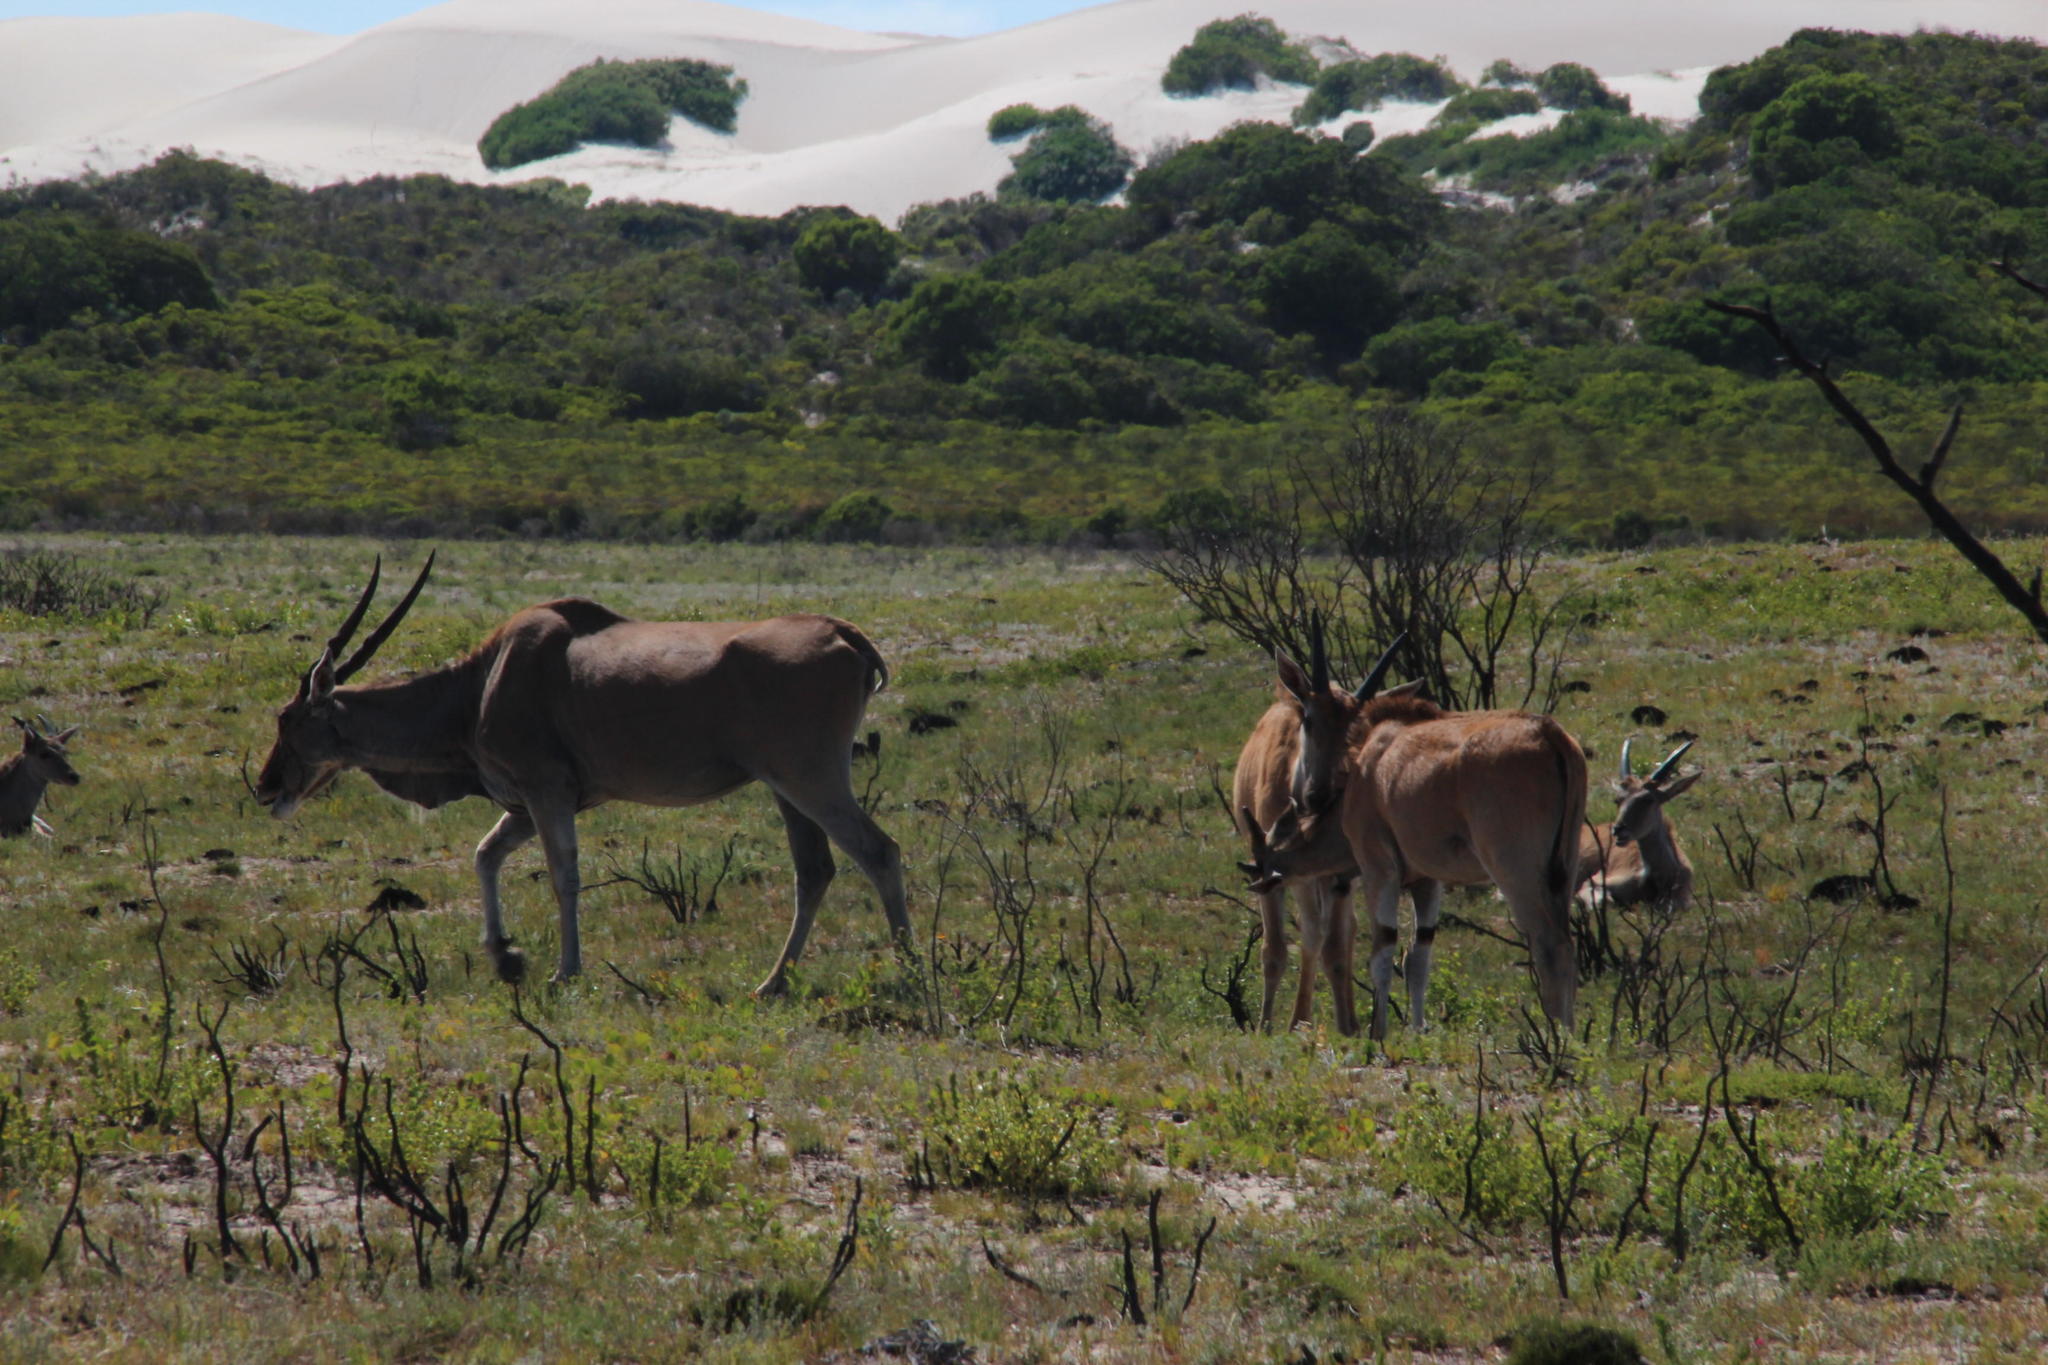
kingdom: Animalia
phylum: Chordata
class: Mammalia
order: Artiodactyla
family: Bovidae
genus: Taurotragus
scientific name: Taurotragus oryx
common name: Common eland
